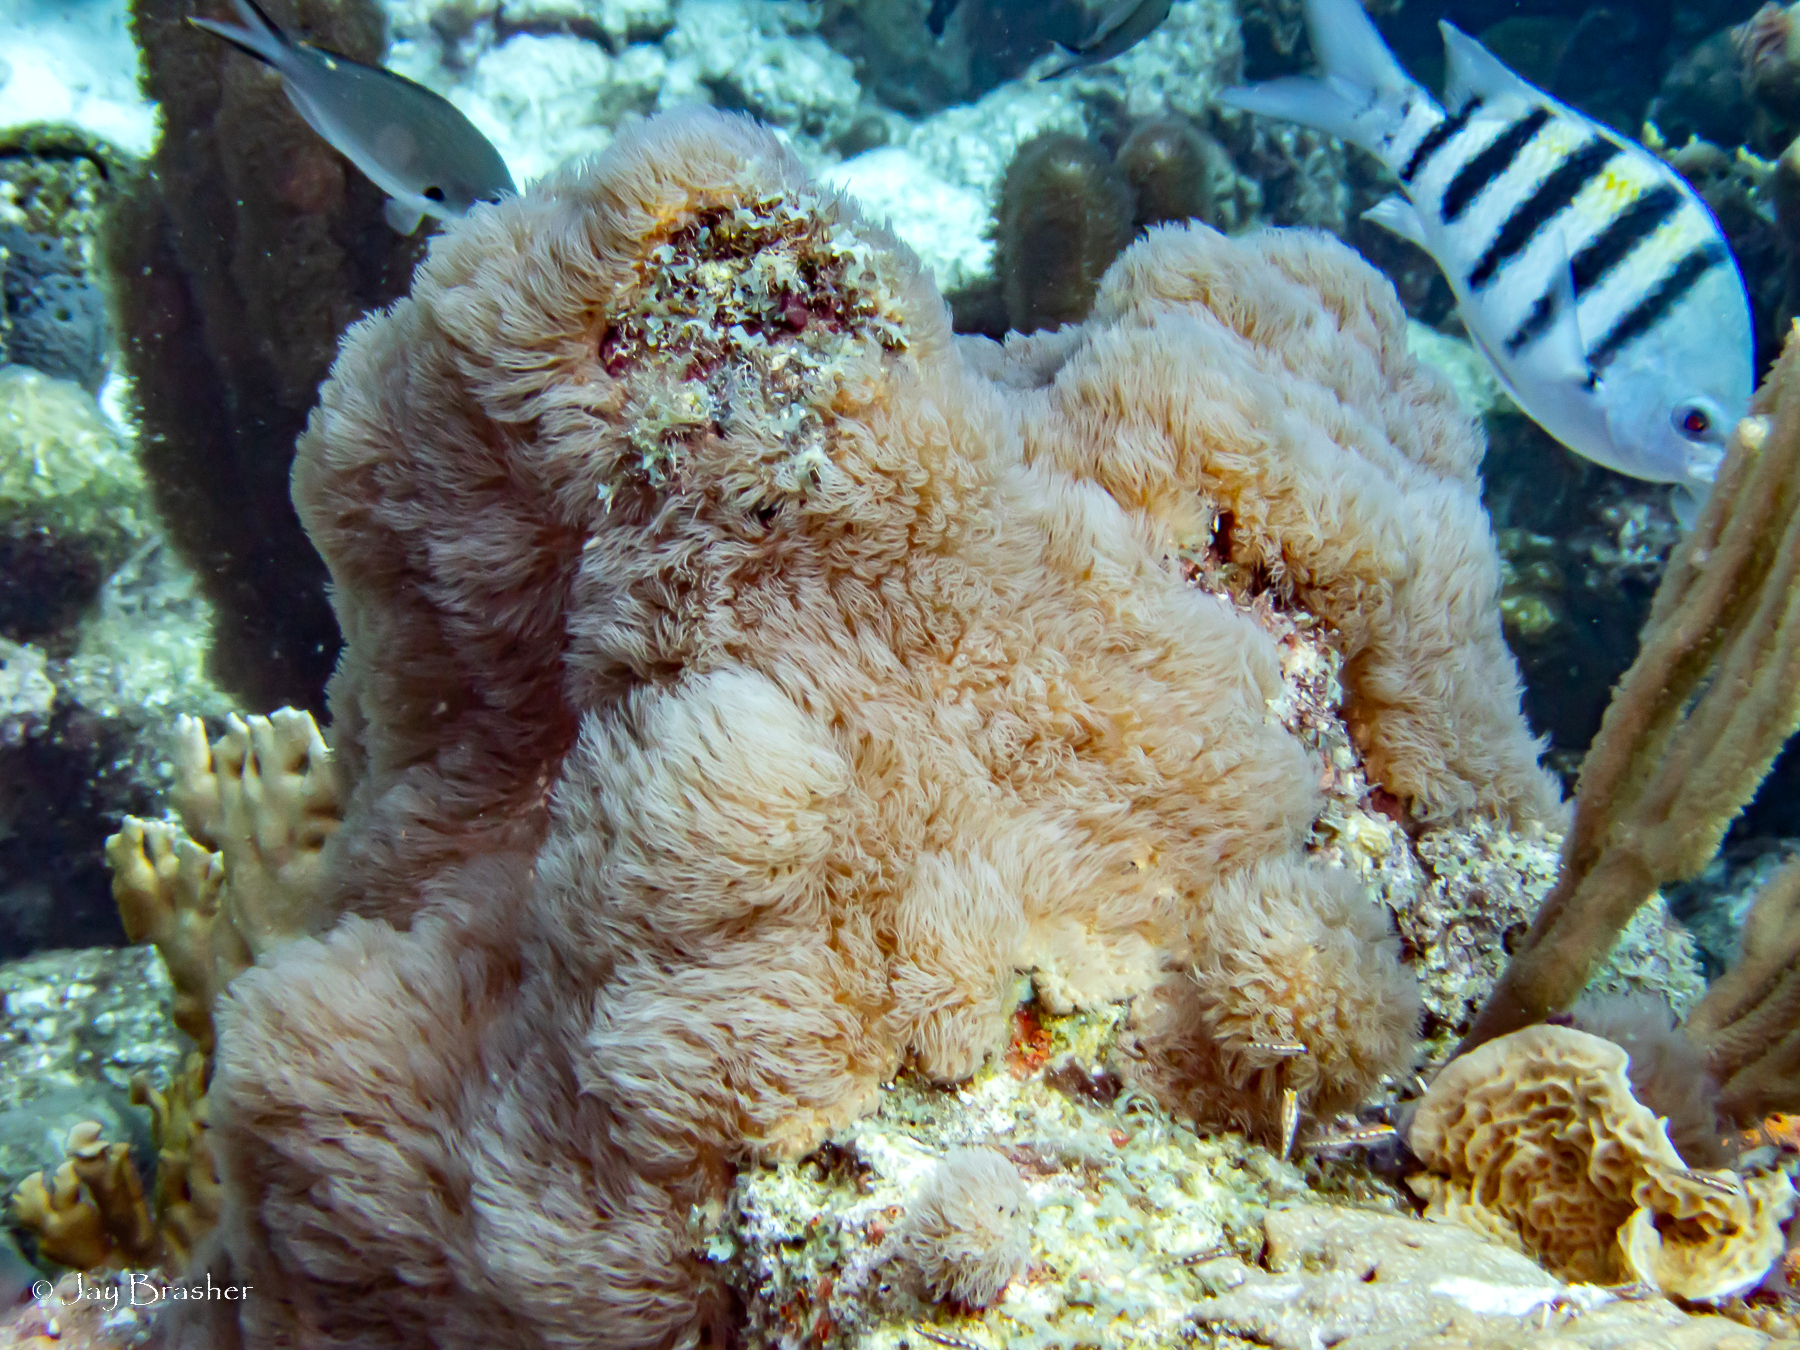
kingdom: Animalia
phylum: Cnidaria
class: Anthozoa
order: Scleralcyonacea
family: Erythropodiidae
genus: Erythropodium
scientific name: Erythropodium caribaeorum
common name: Encrusting gorgonian
